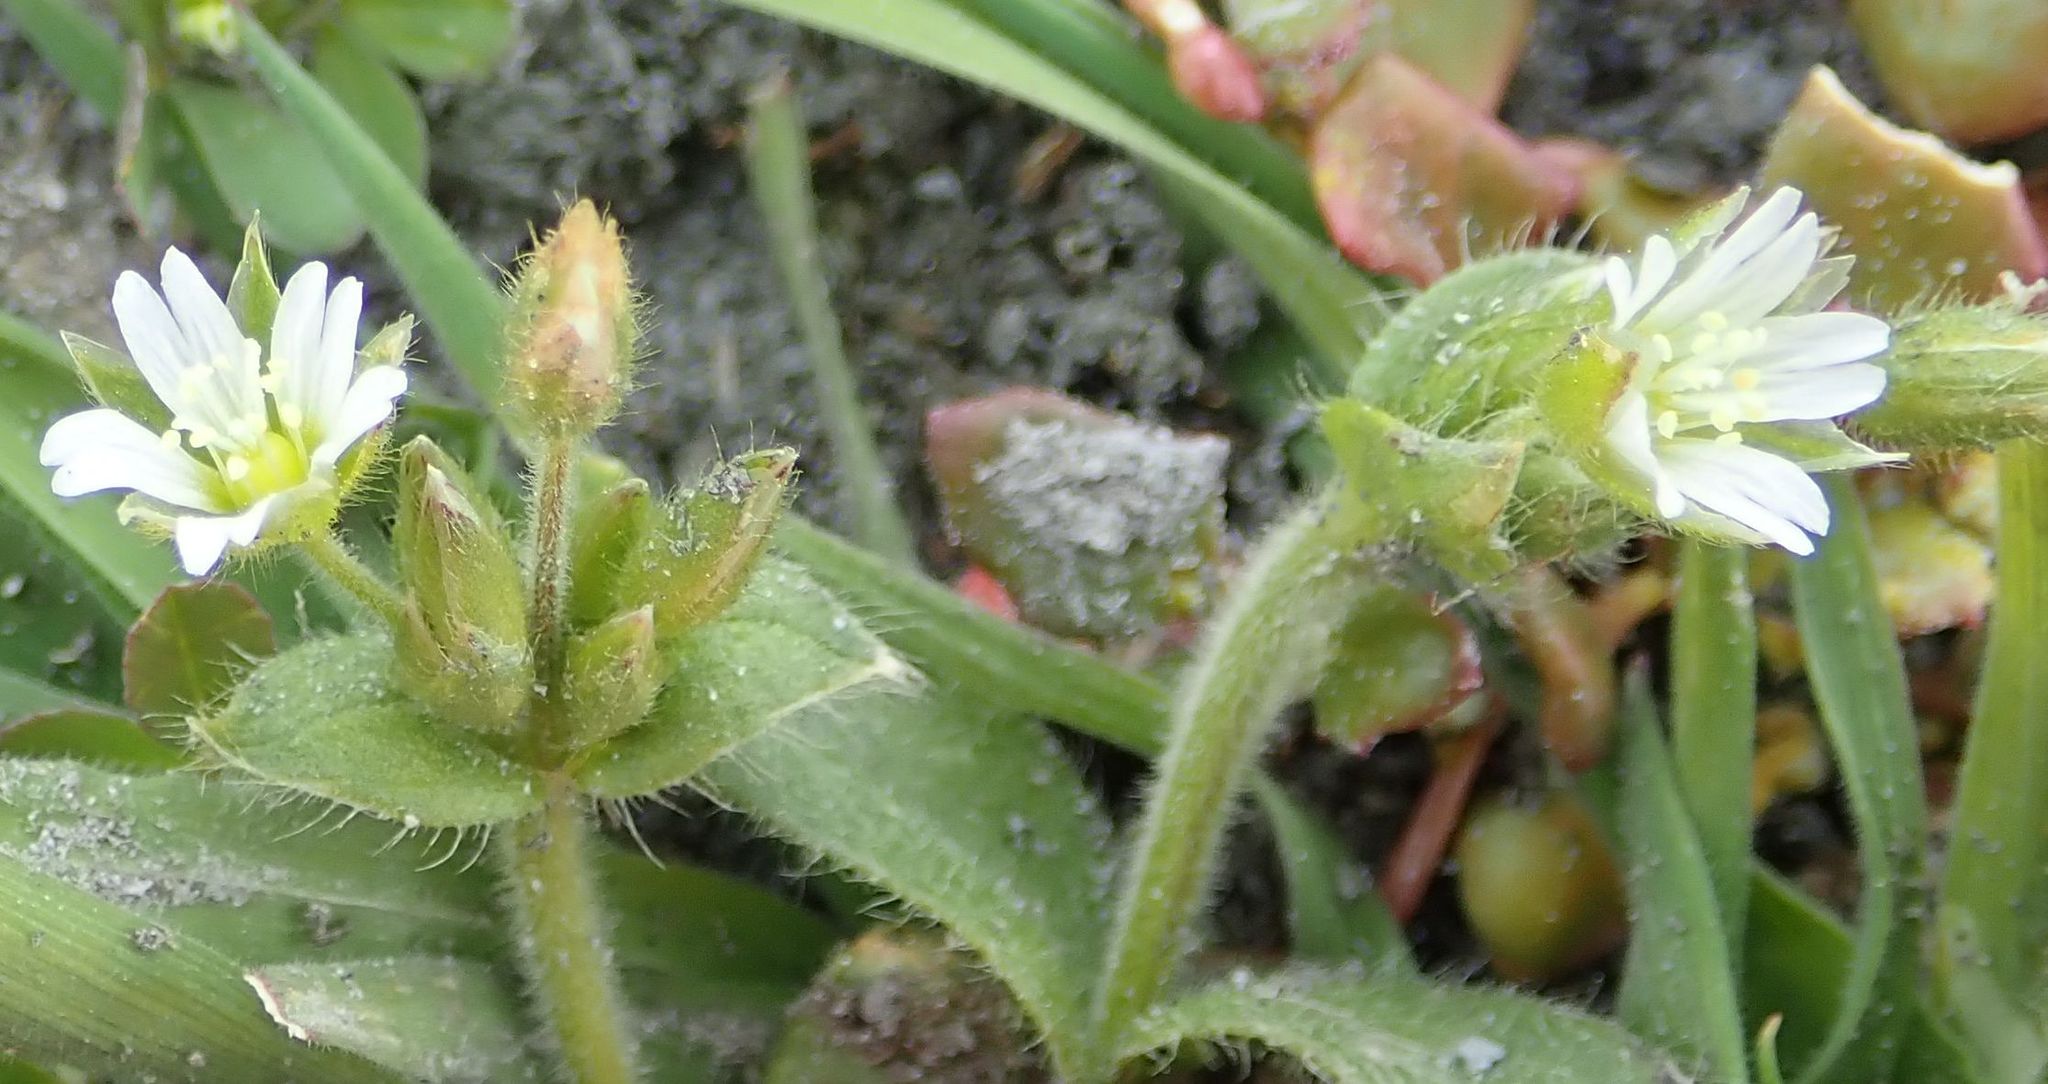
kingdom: Plantae
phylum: Tracheophyta
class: Magnoliopsida
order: Caryophyllales
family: Caryophyllaceae
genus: Cerastium
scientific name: Cerastium glomeratum
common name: Sticky chickweed
